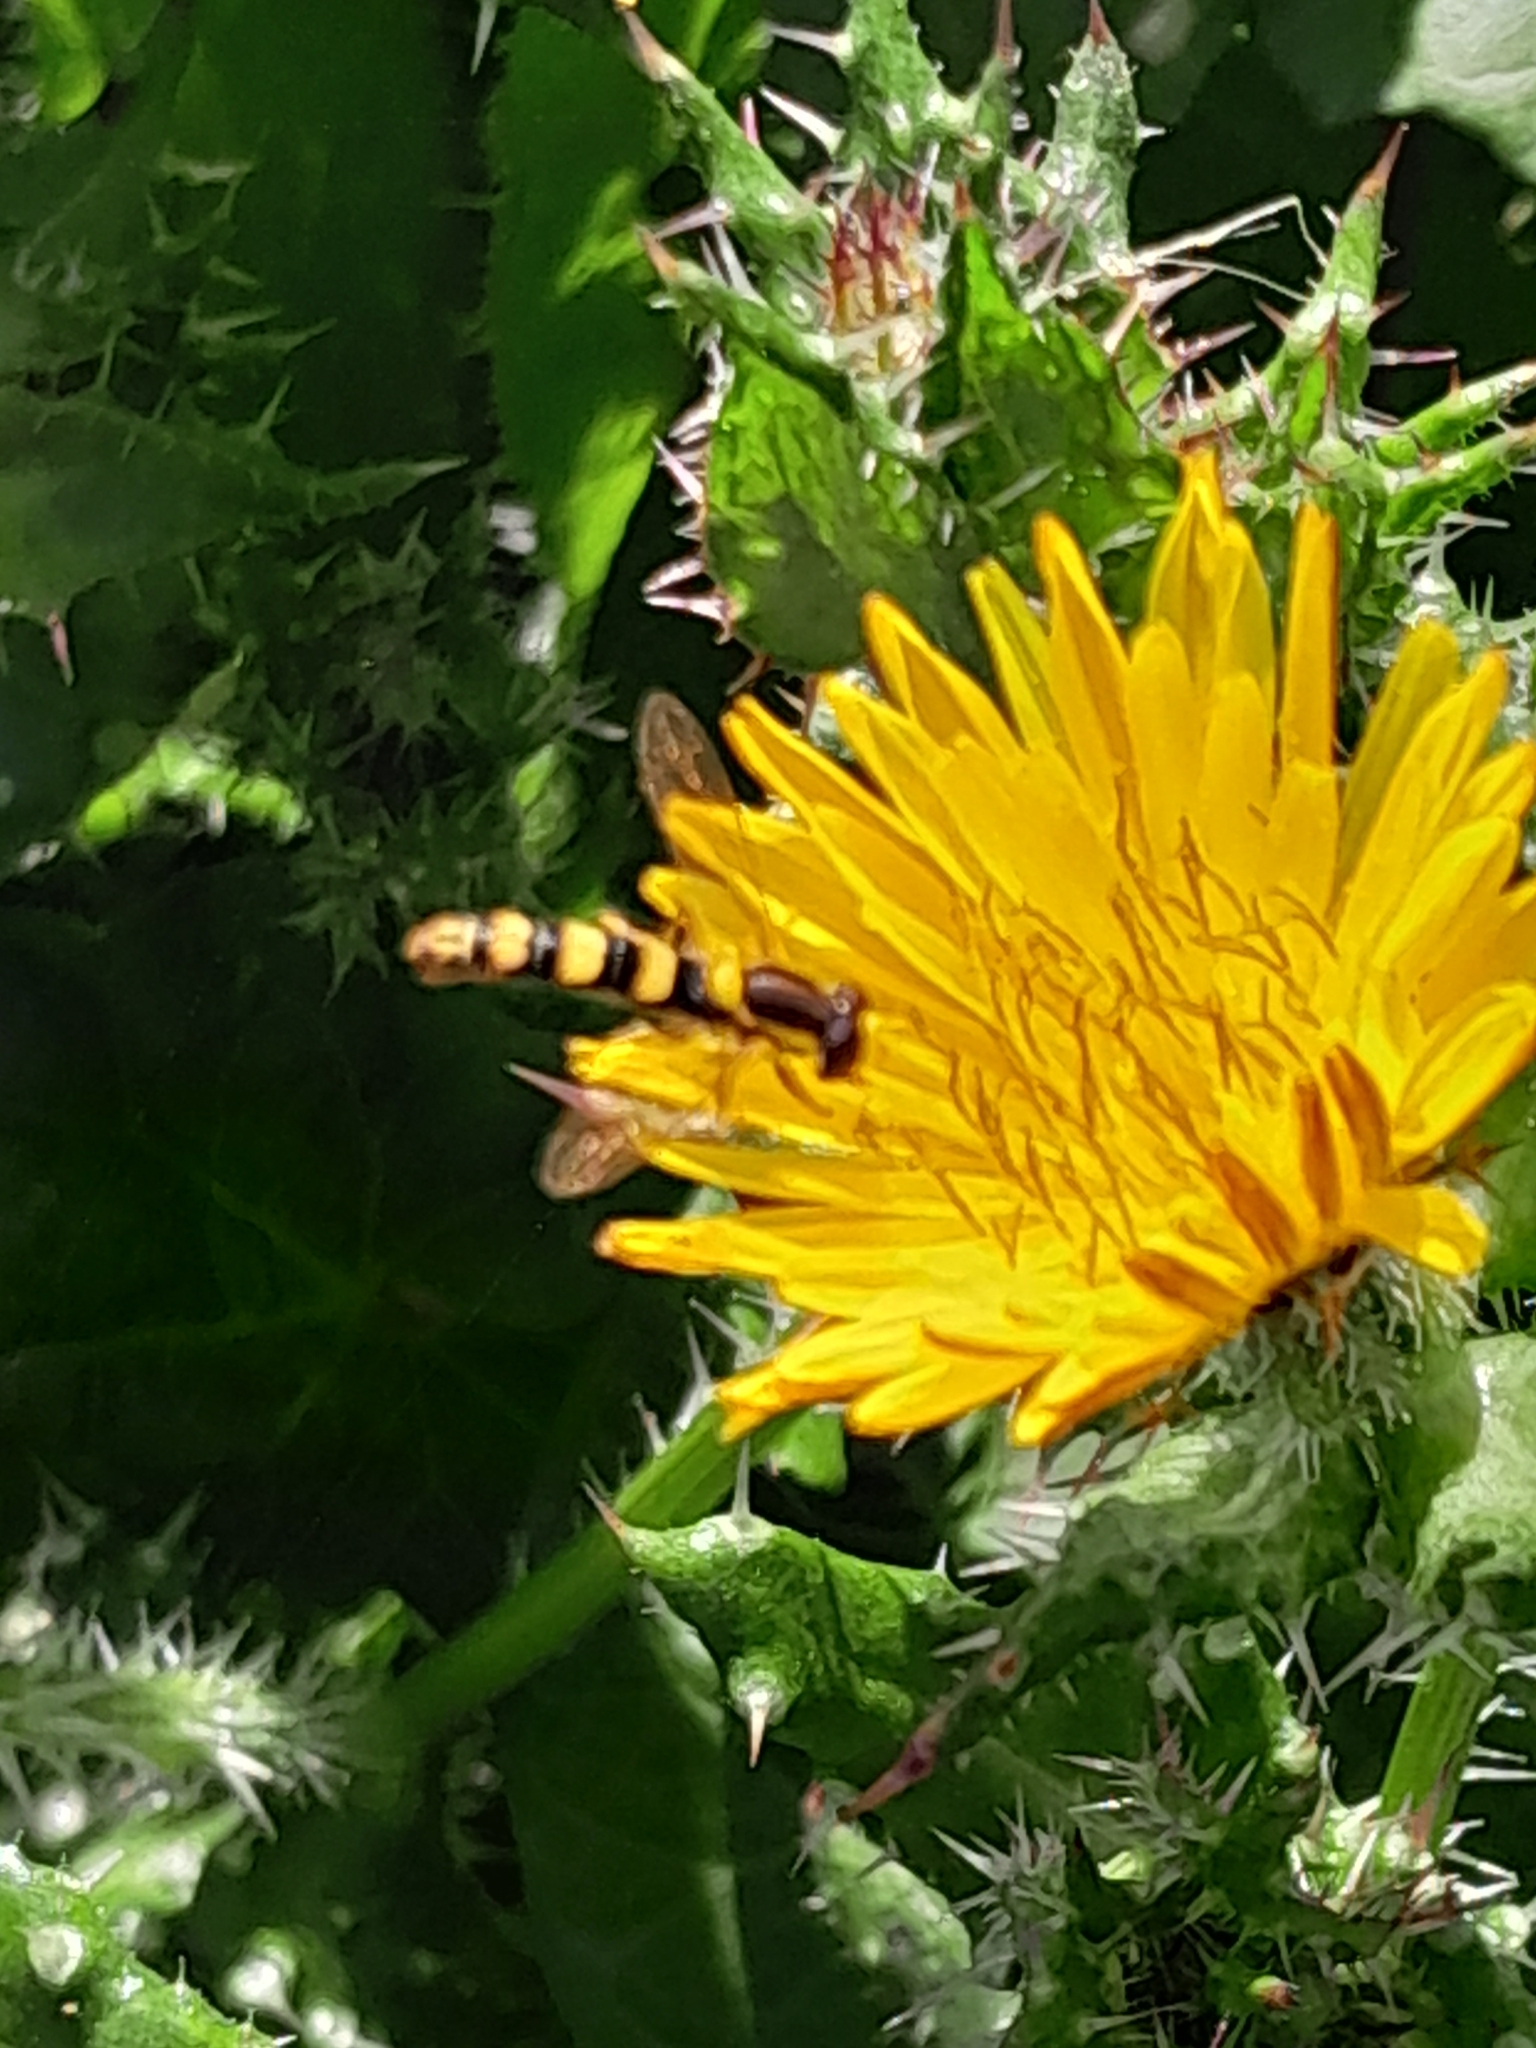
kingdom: Animalia
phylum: Arthropoda
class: Insecta
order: Diptera
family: Syrphidae
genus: Sphaerophoria
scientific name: Sphaerophoria
